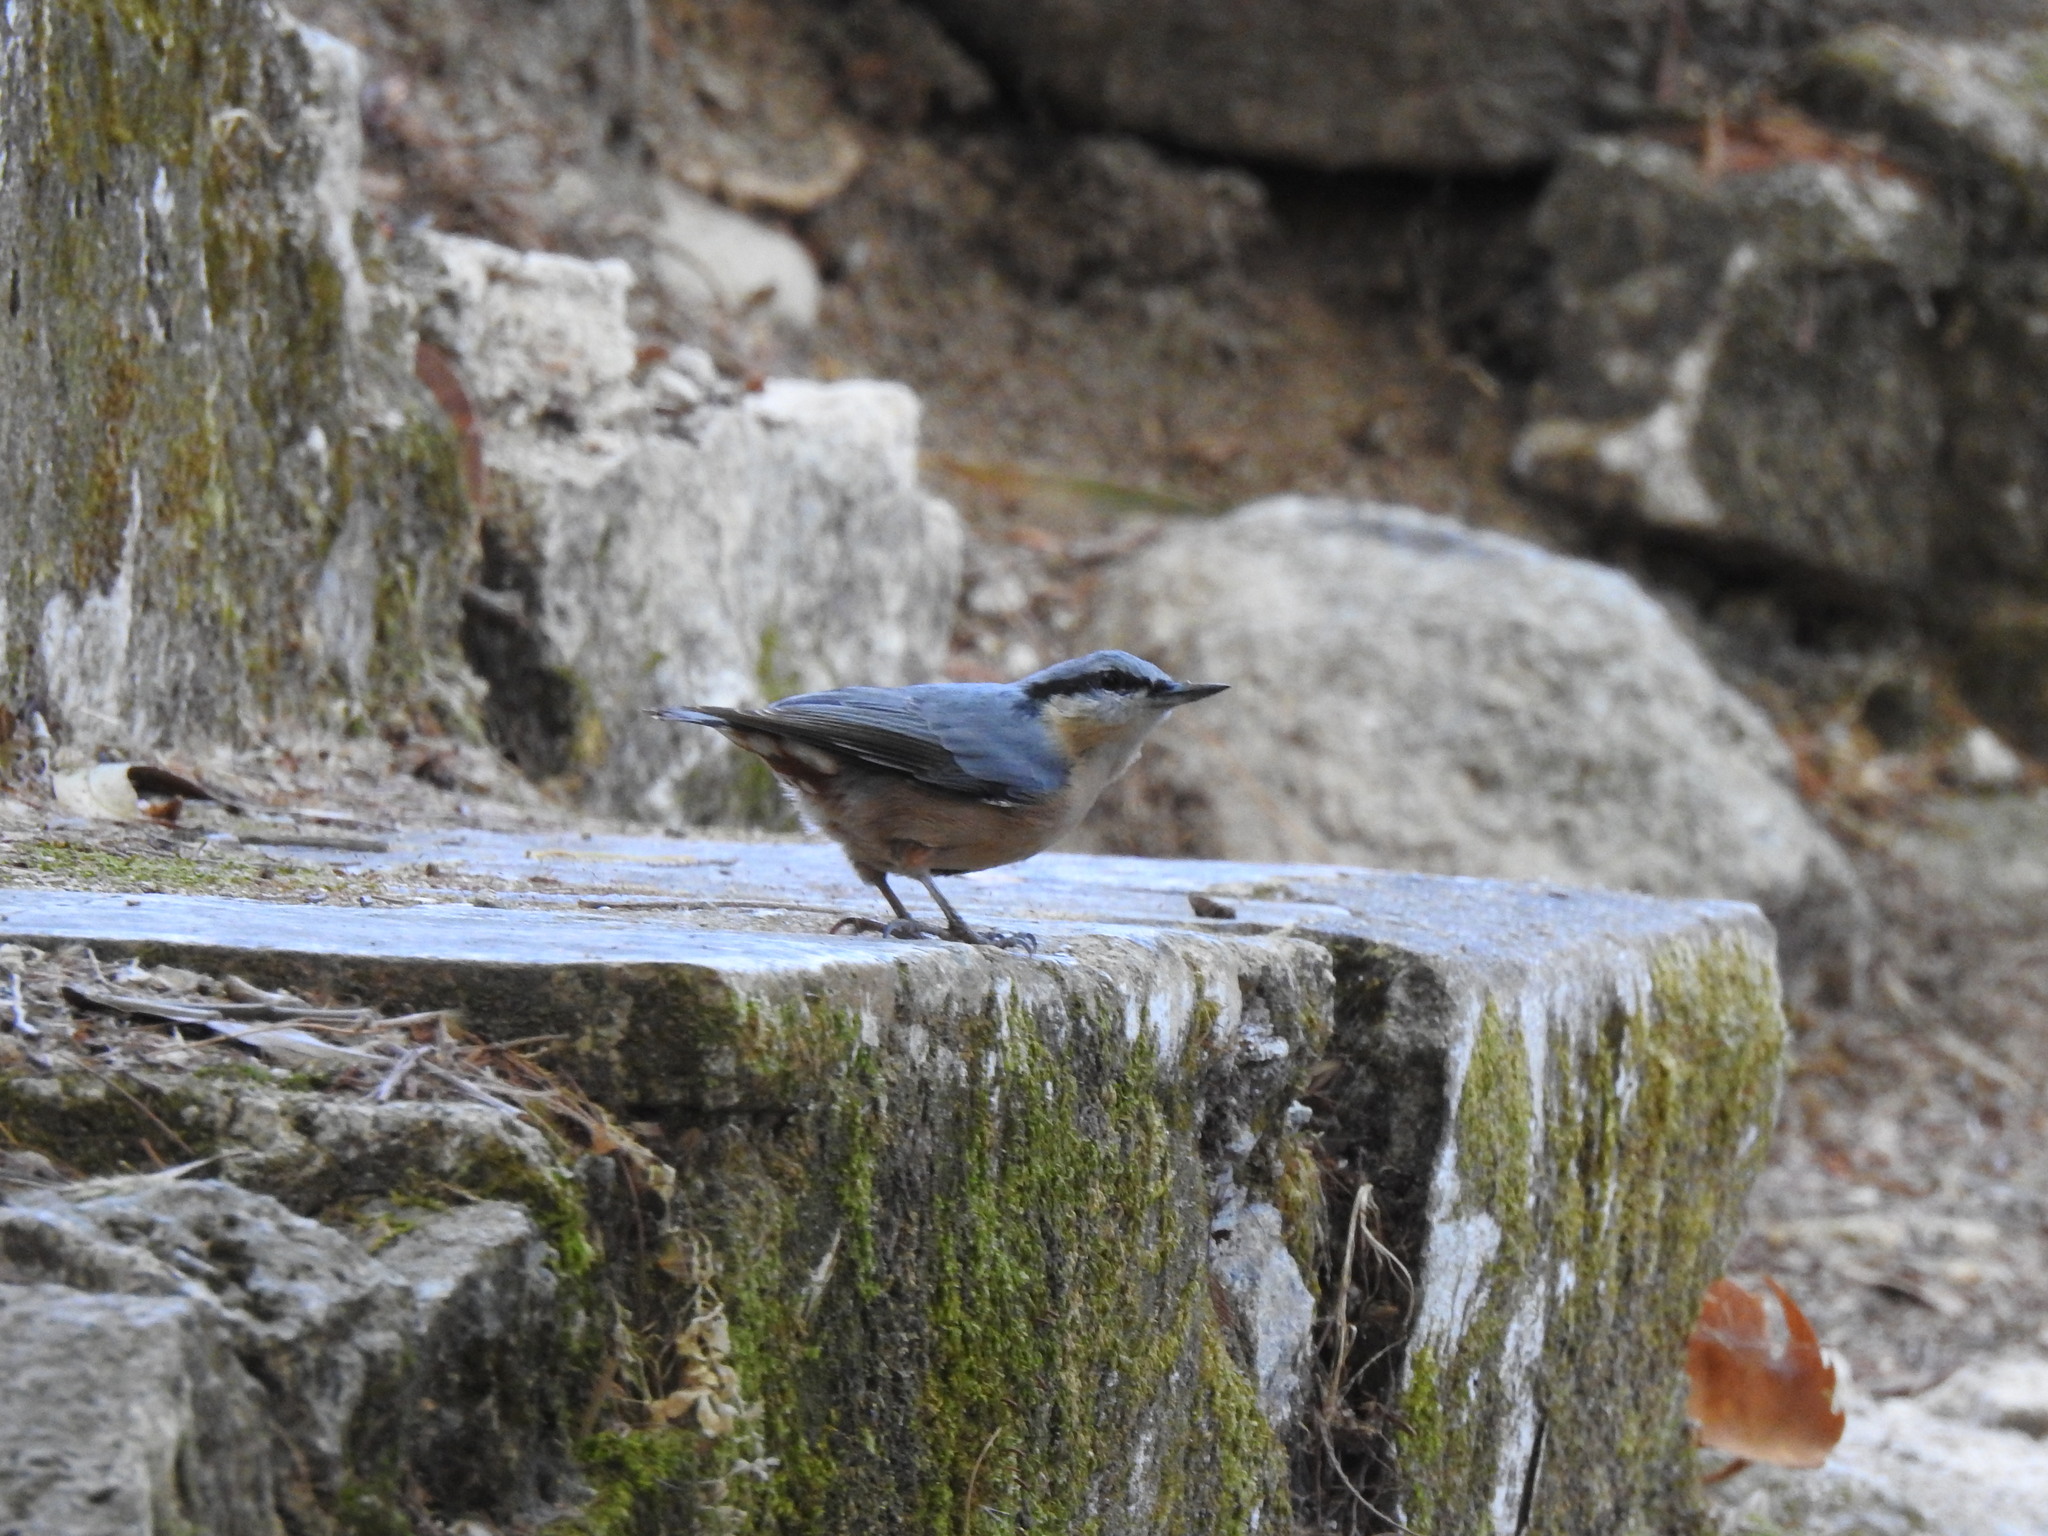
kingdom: Animalia
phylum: Chordata
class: Aves
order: Passeriformes
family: Sittidae
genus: Sitta
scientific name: Sitta europaea
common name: Eurasian nuthatch
